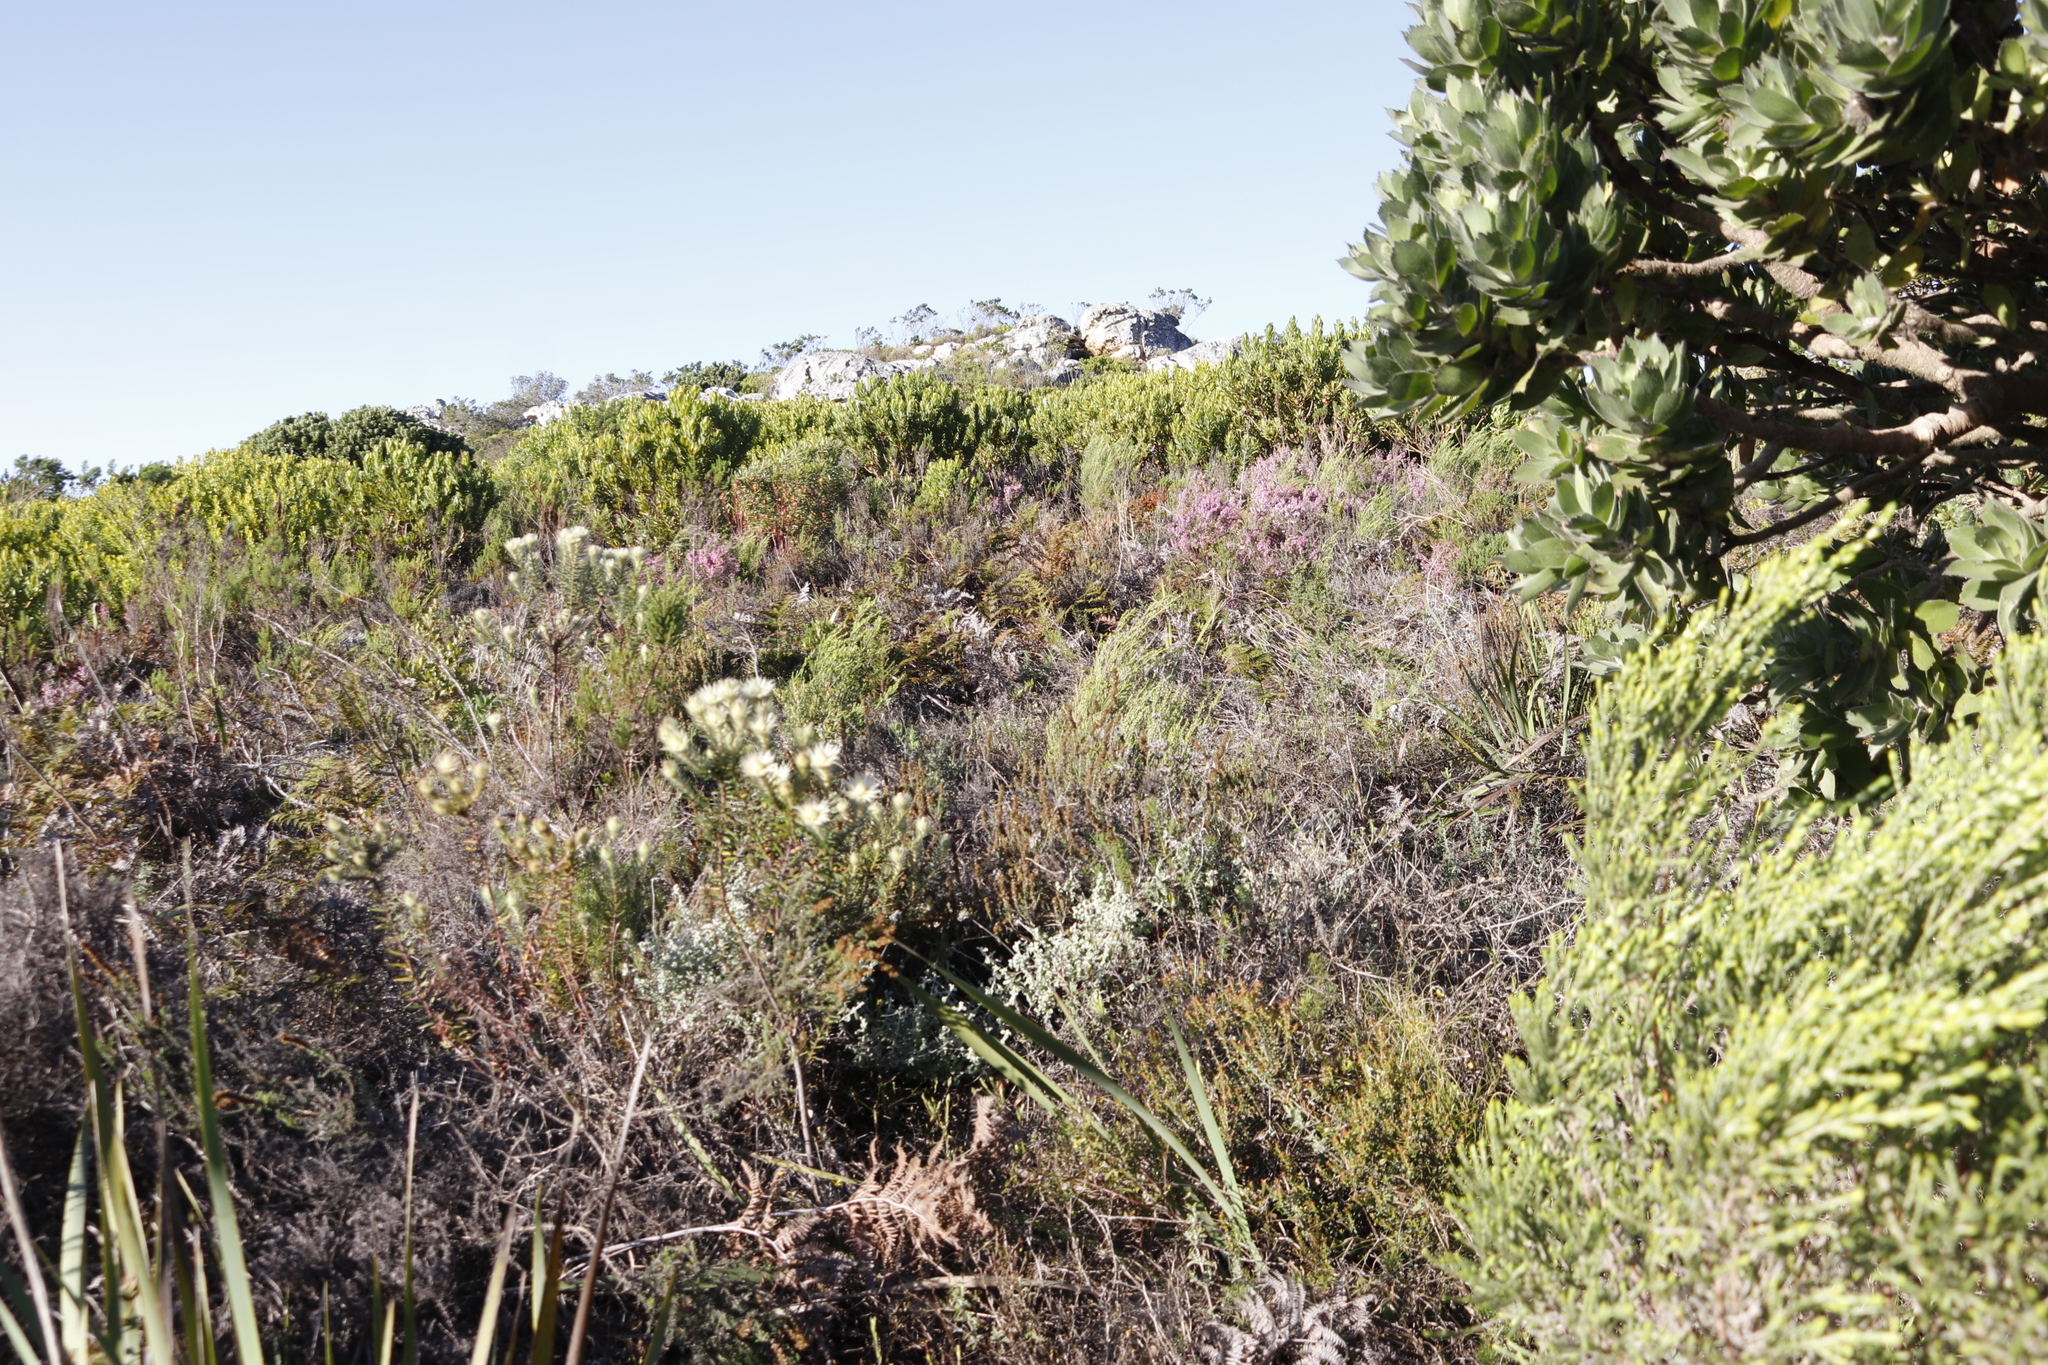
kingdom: Plantae
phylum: Tracheophyta
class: Magnoliopsida
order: Rosales
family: Rhamnaceae
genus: Phylica
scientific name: Phylica plumosa
